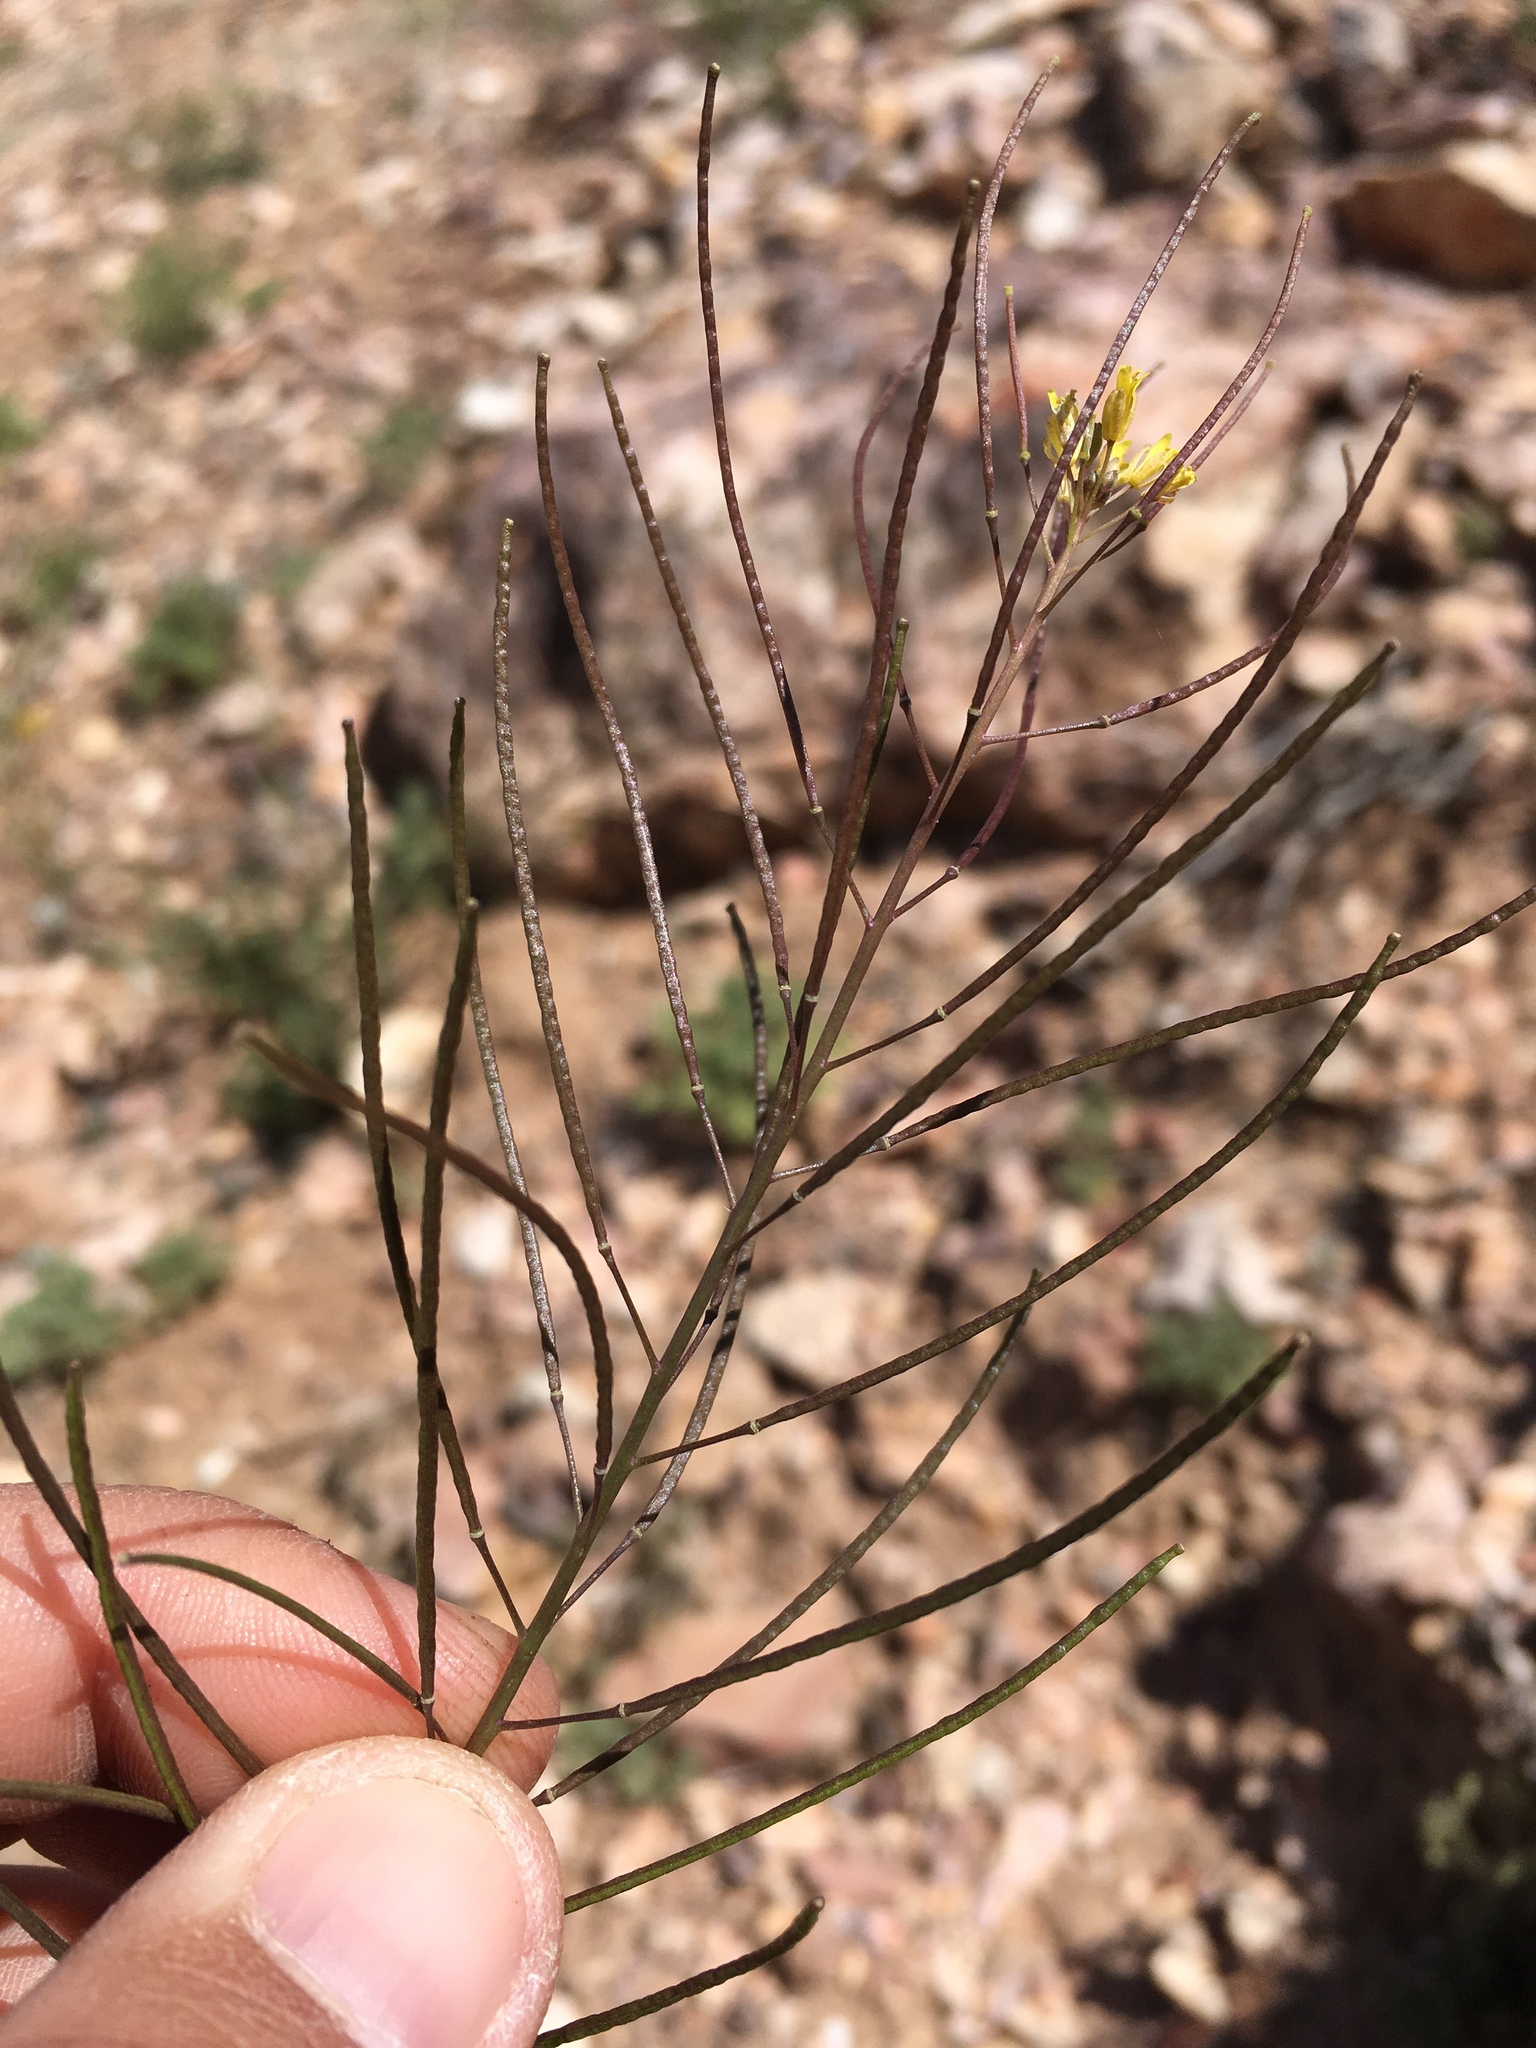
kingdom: Plantae
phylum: Tracheophyta
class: Magnoliopsida
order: Brassicales
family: Brassicaceae
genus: Sisymbrium
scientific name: Sisymbrium irio
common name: London rocket
